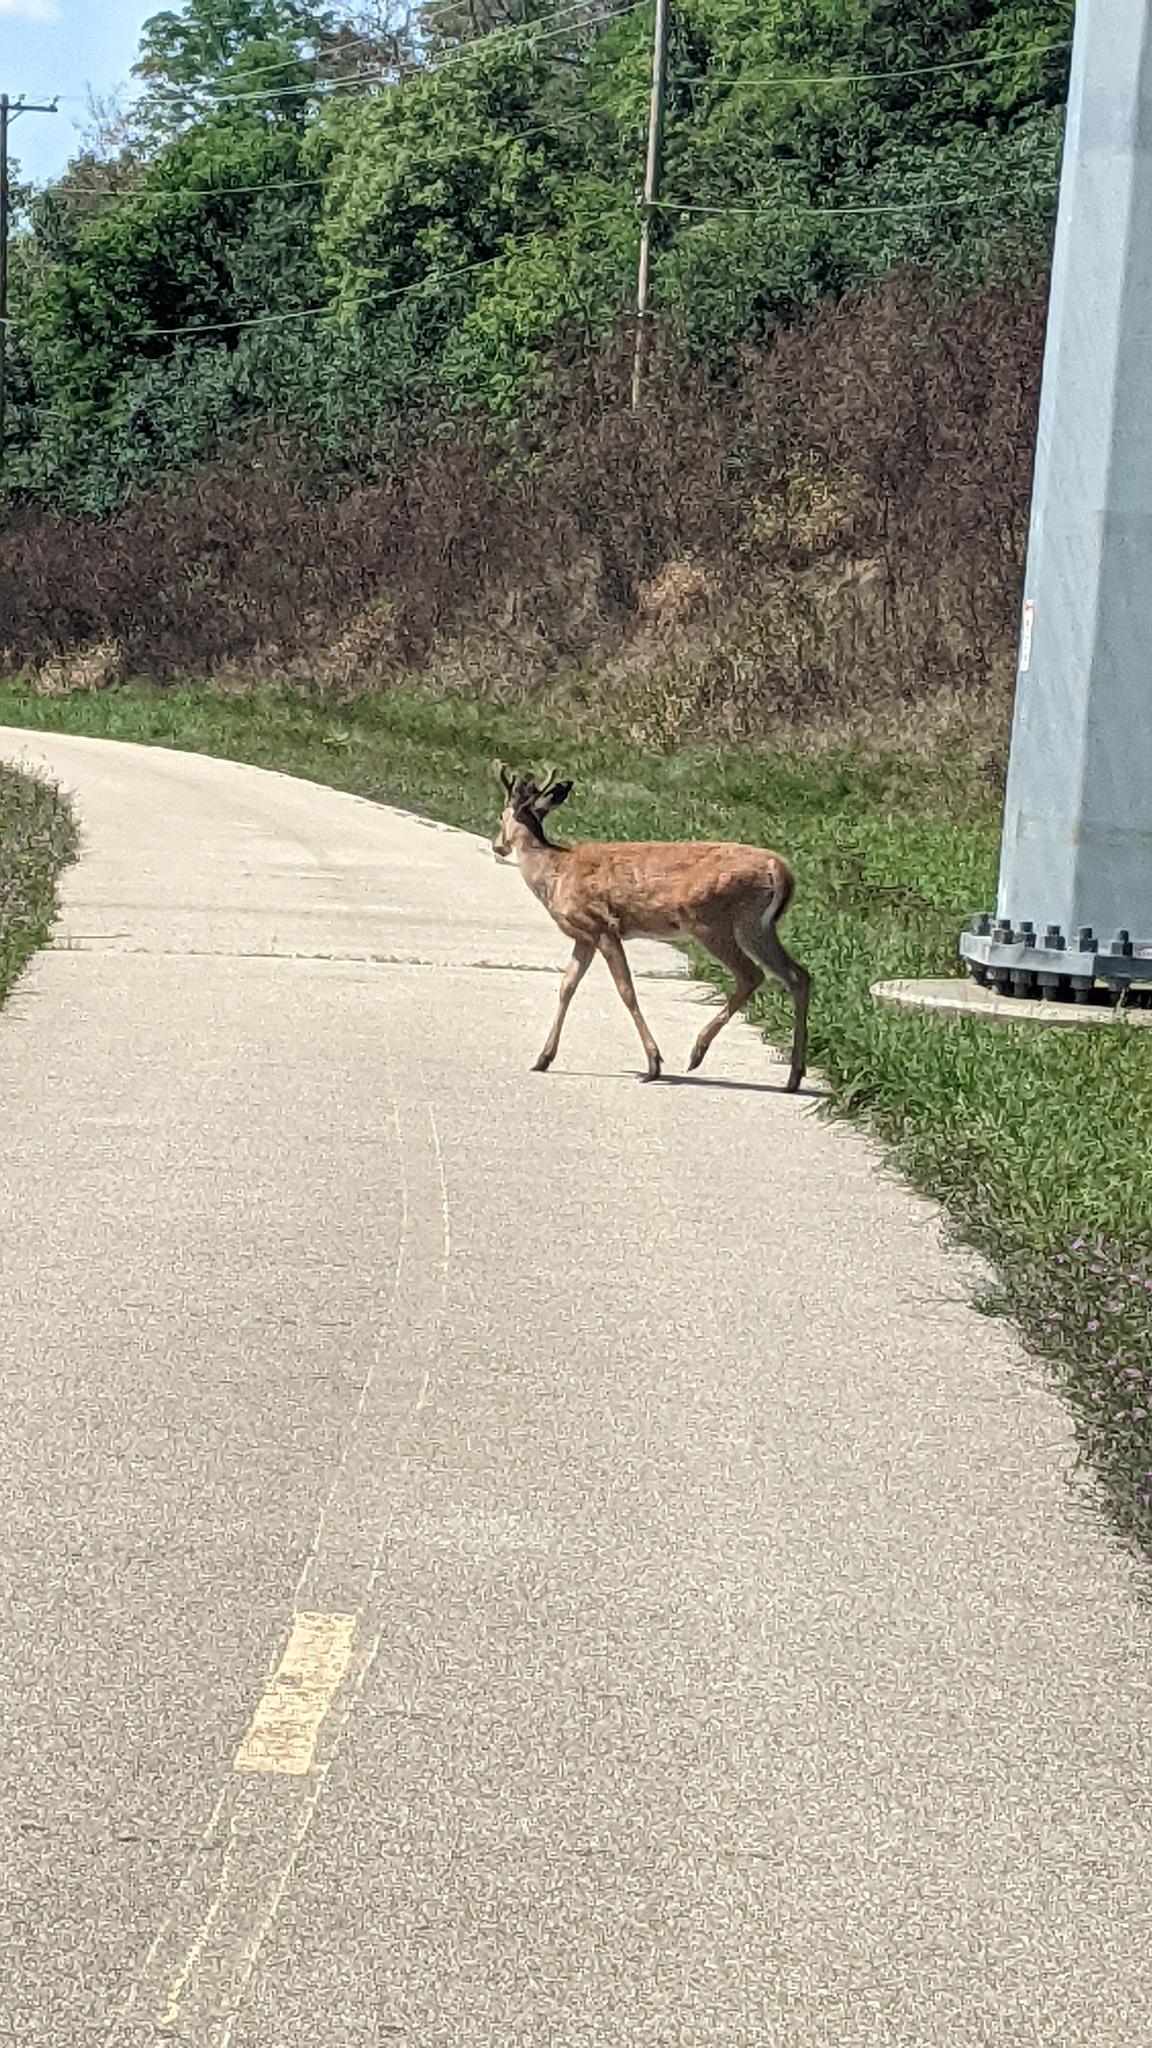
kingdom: Animalia
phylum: Chordata
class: Mammalia
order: Artiodactyla
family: Cervidae
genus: Odocoileus
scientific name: Odocoileus virginianus
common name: White-tailed deer
